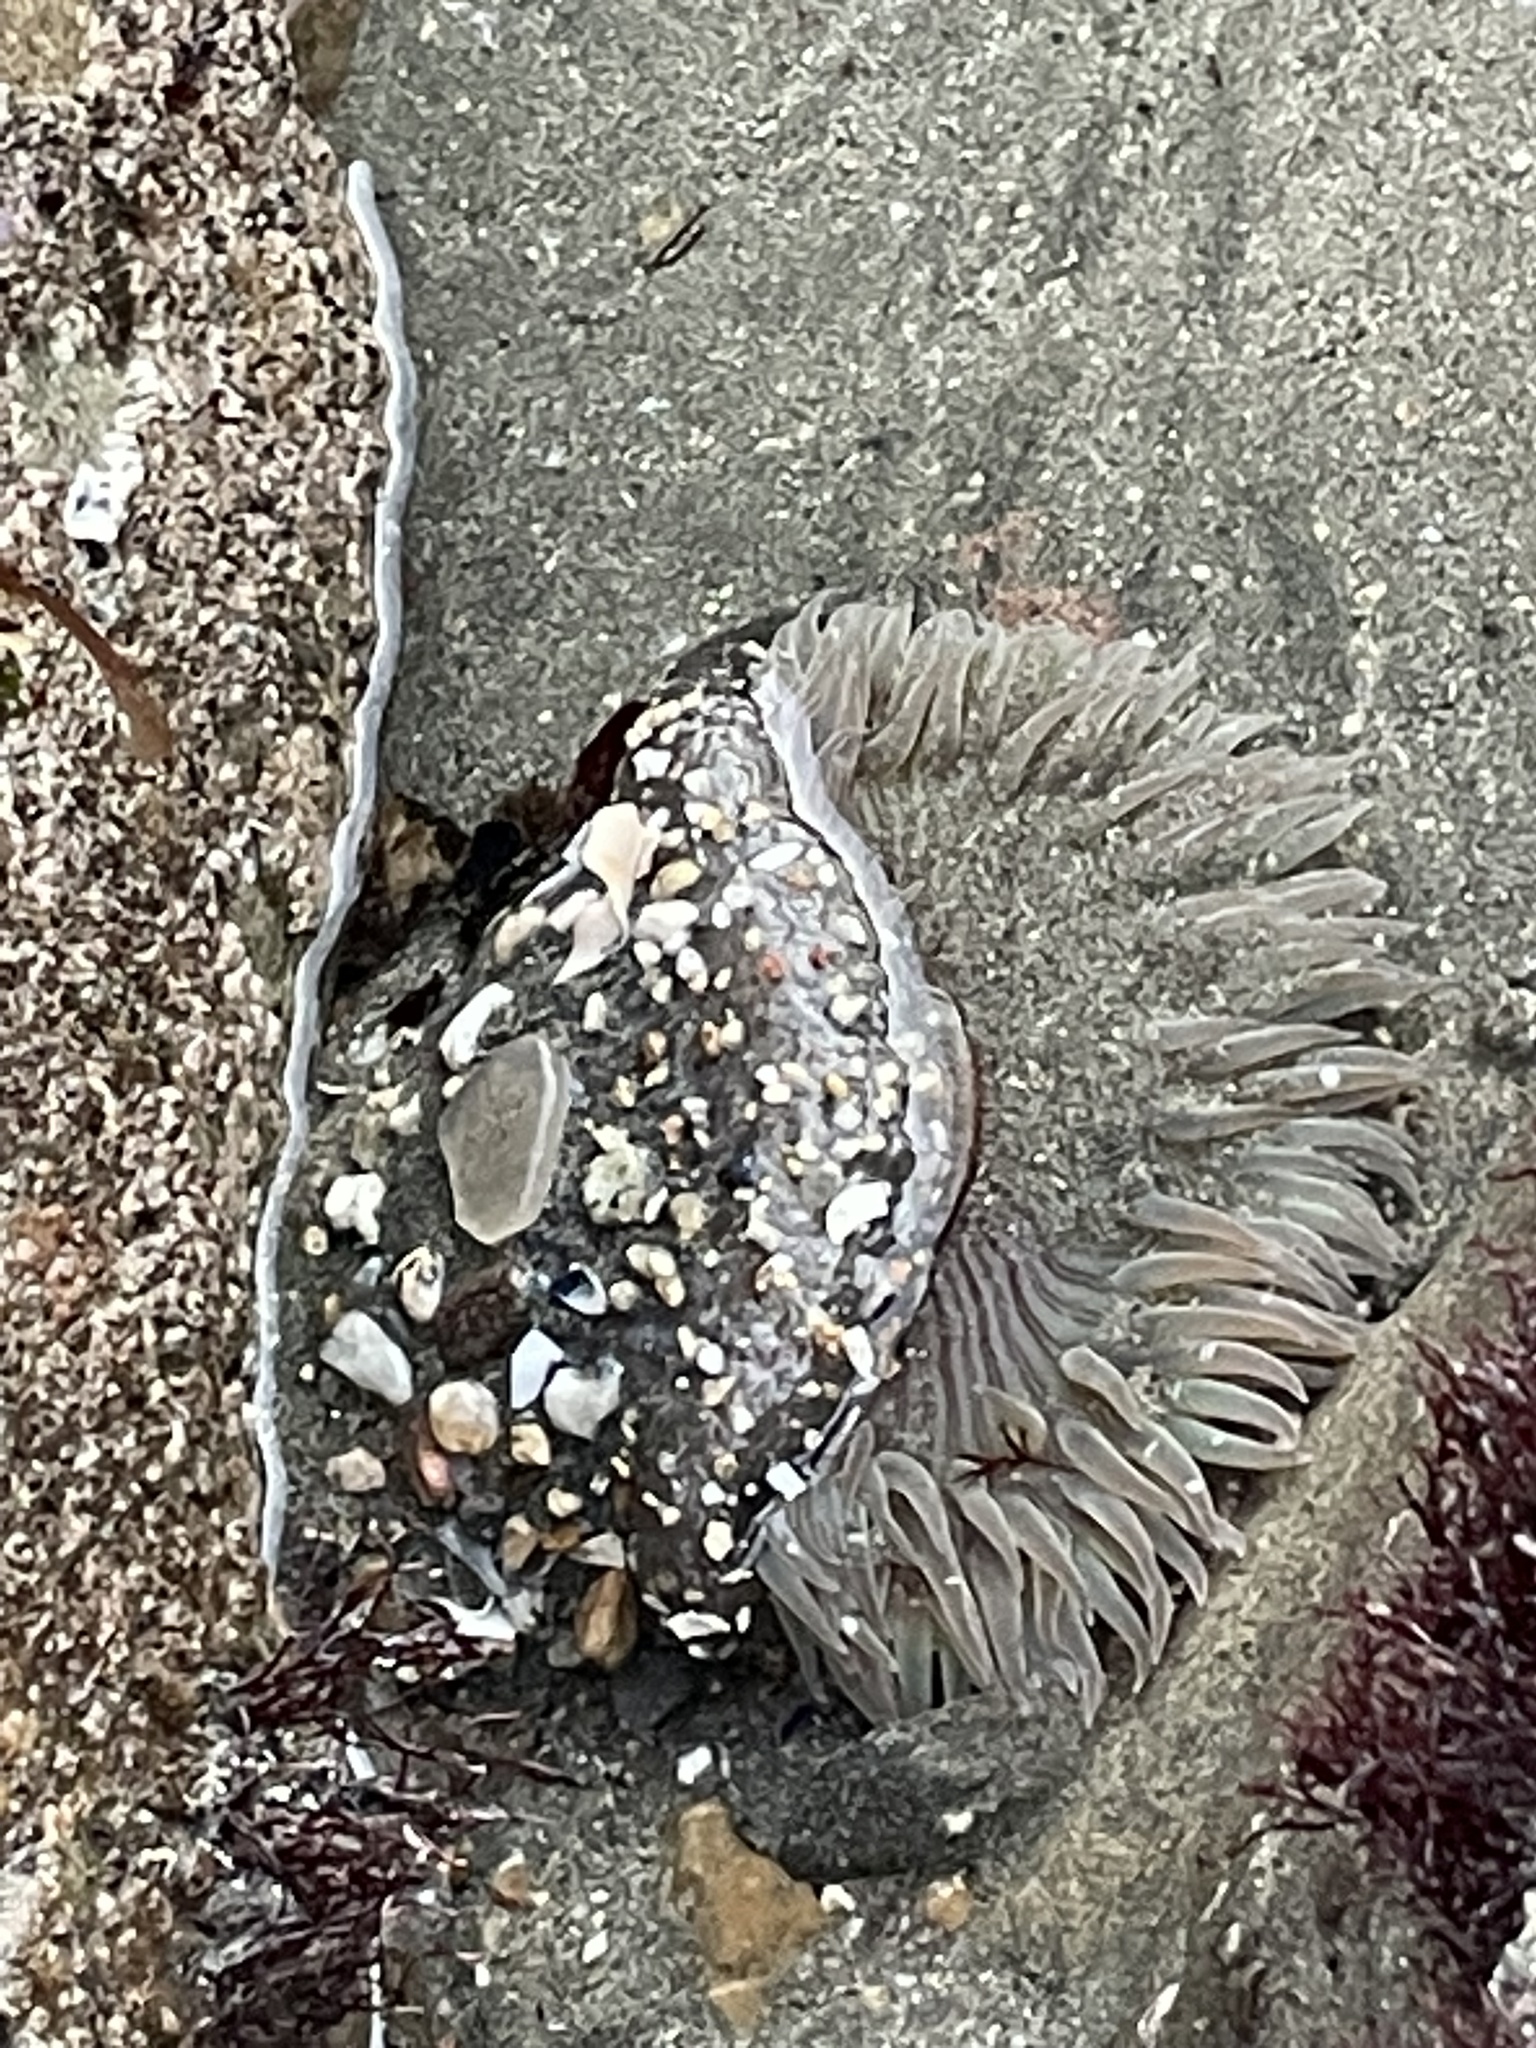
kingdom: Animalia
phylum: Cnidaria
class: Anthozoa
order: Actiniaria
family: Actiniidae
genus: Anthopleura
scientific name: Anthopleura sola
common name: Sun anemone
